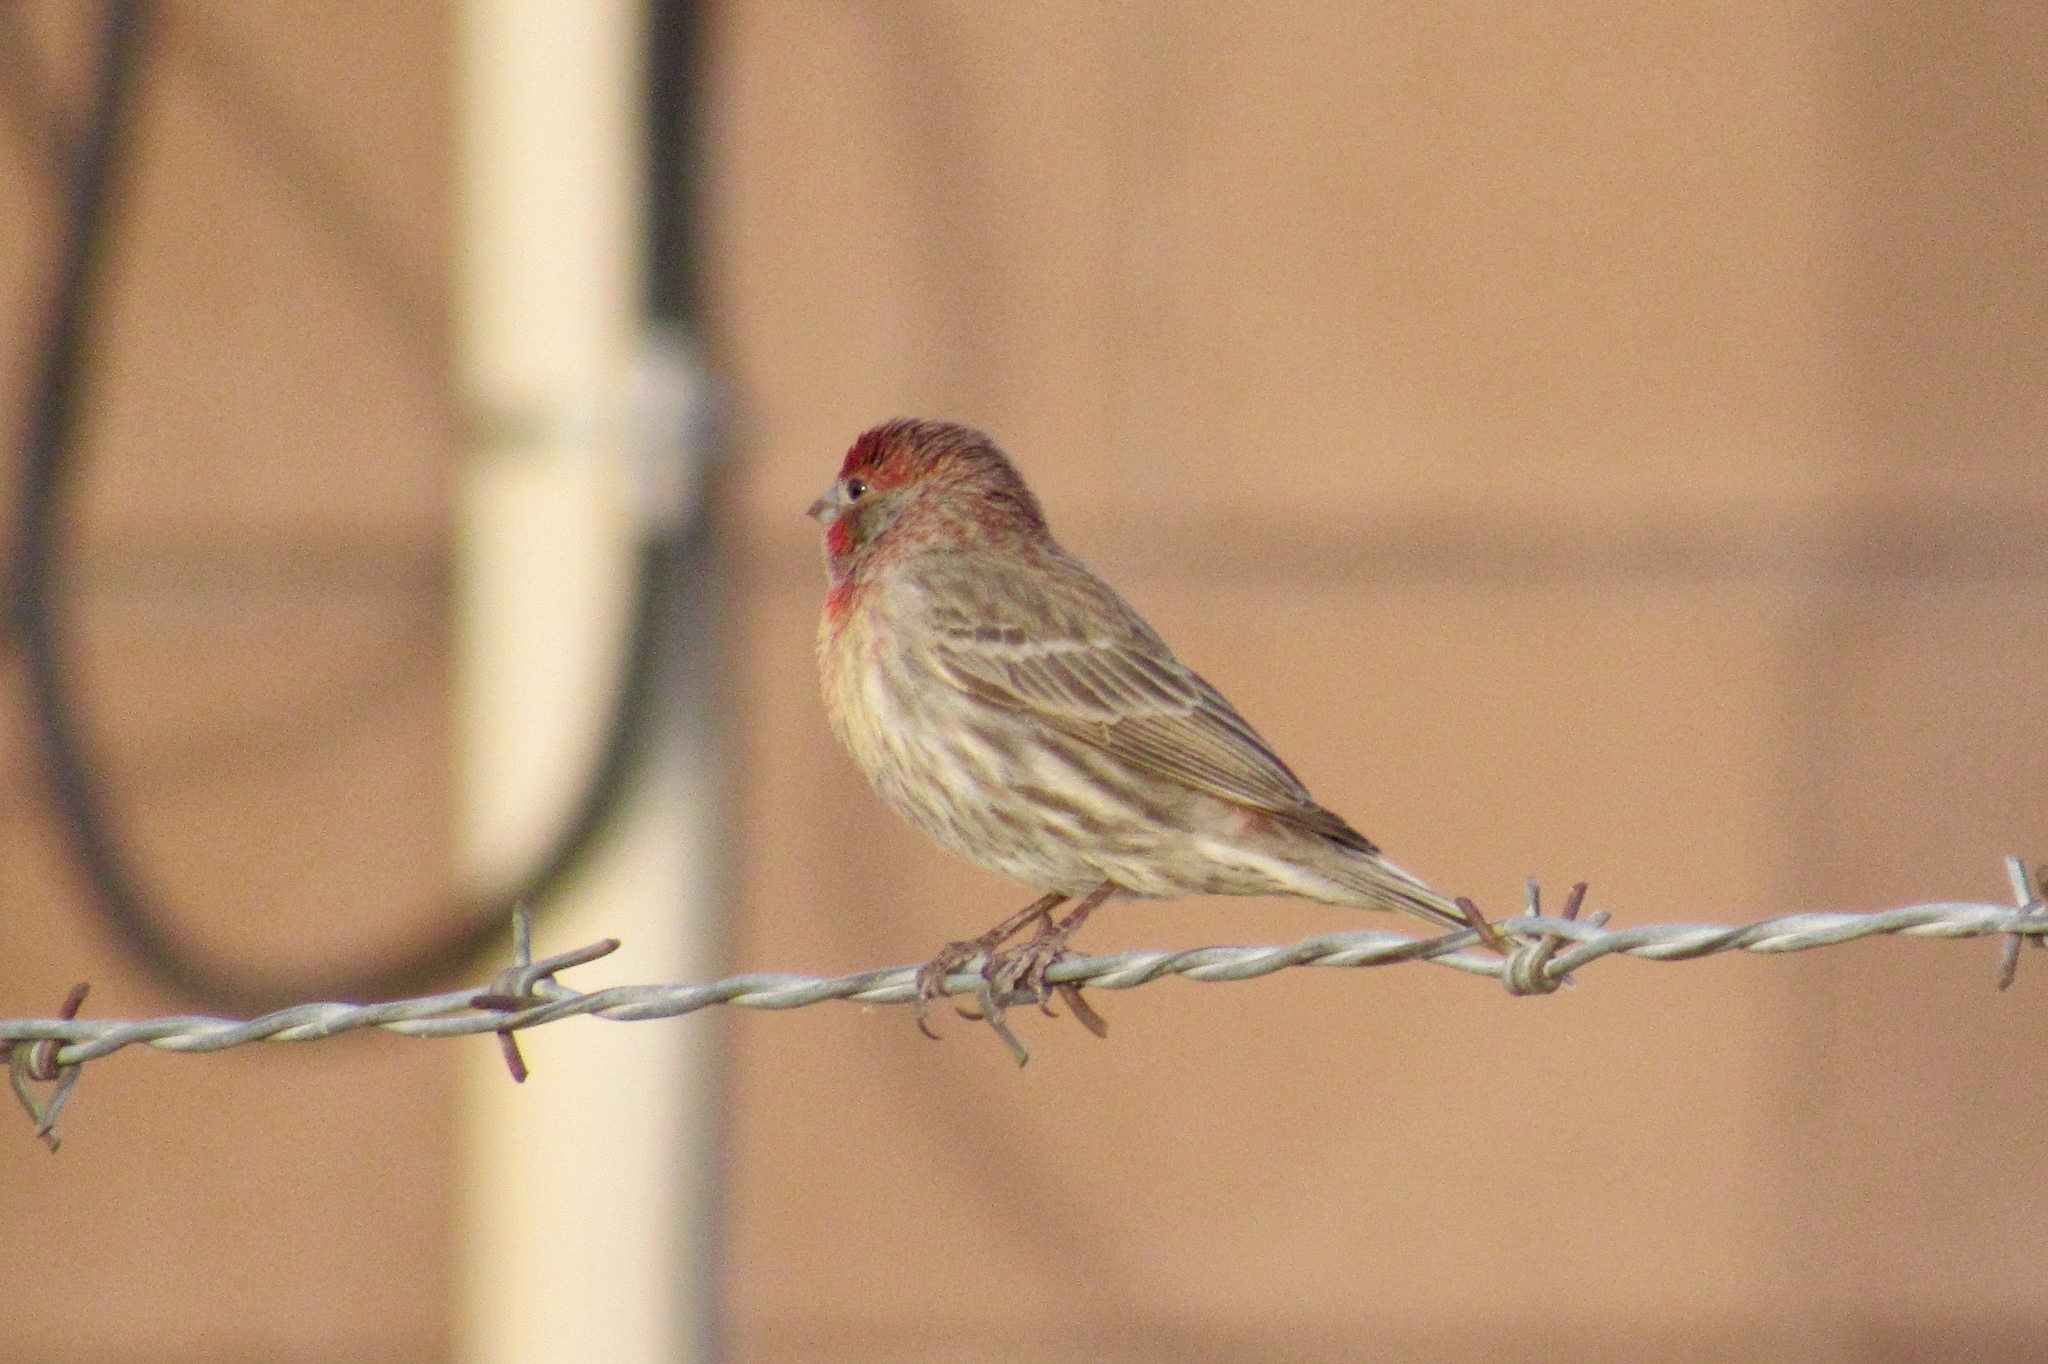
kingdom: Animalia
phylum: Chordata
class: Aves
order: Passeriformes
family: Fringillidae
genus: Haemorhous
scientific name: Haemorhous mexicanus
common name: House finch
